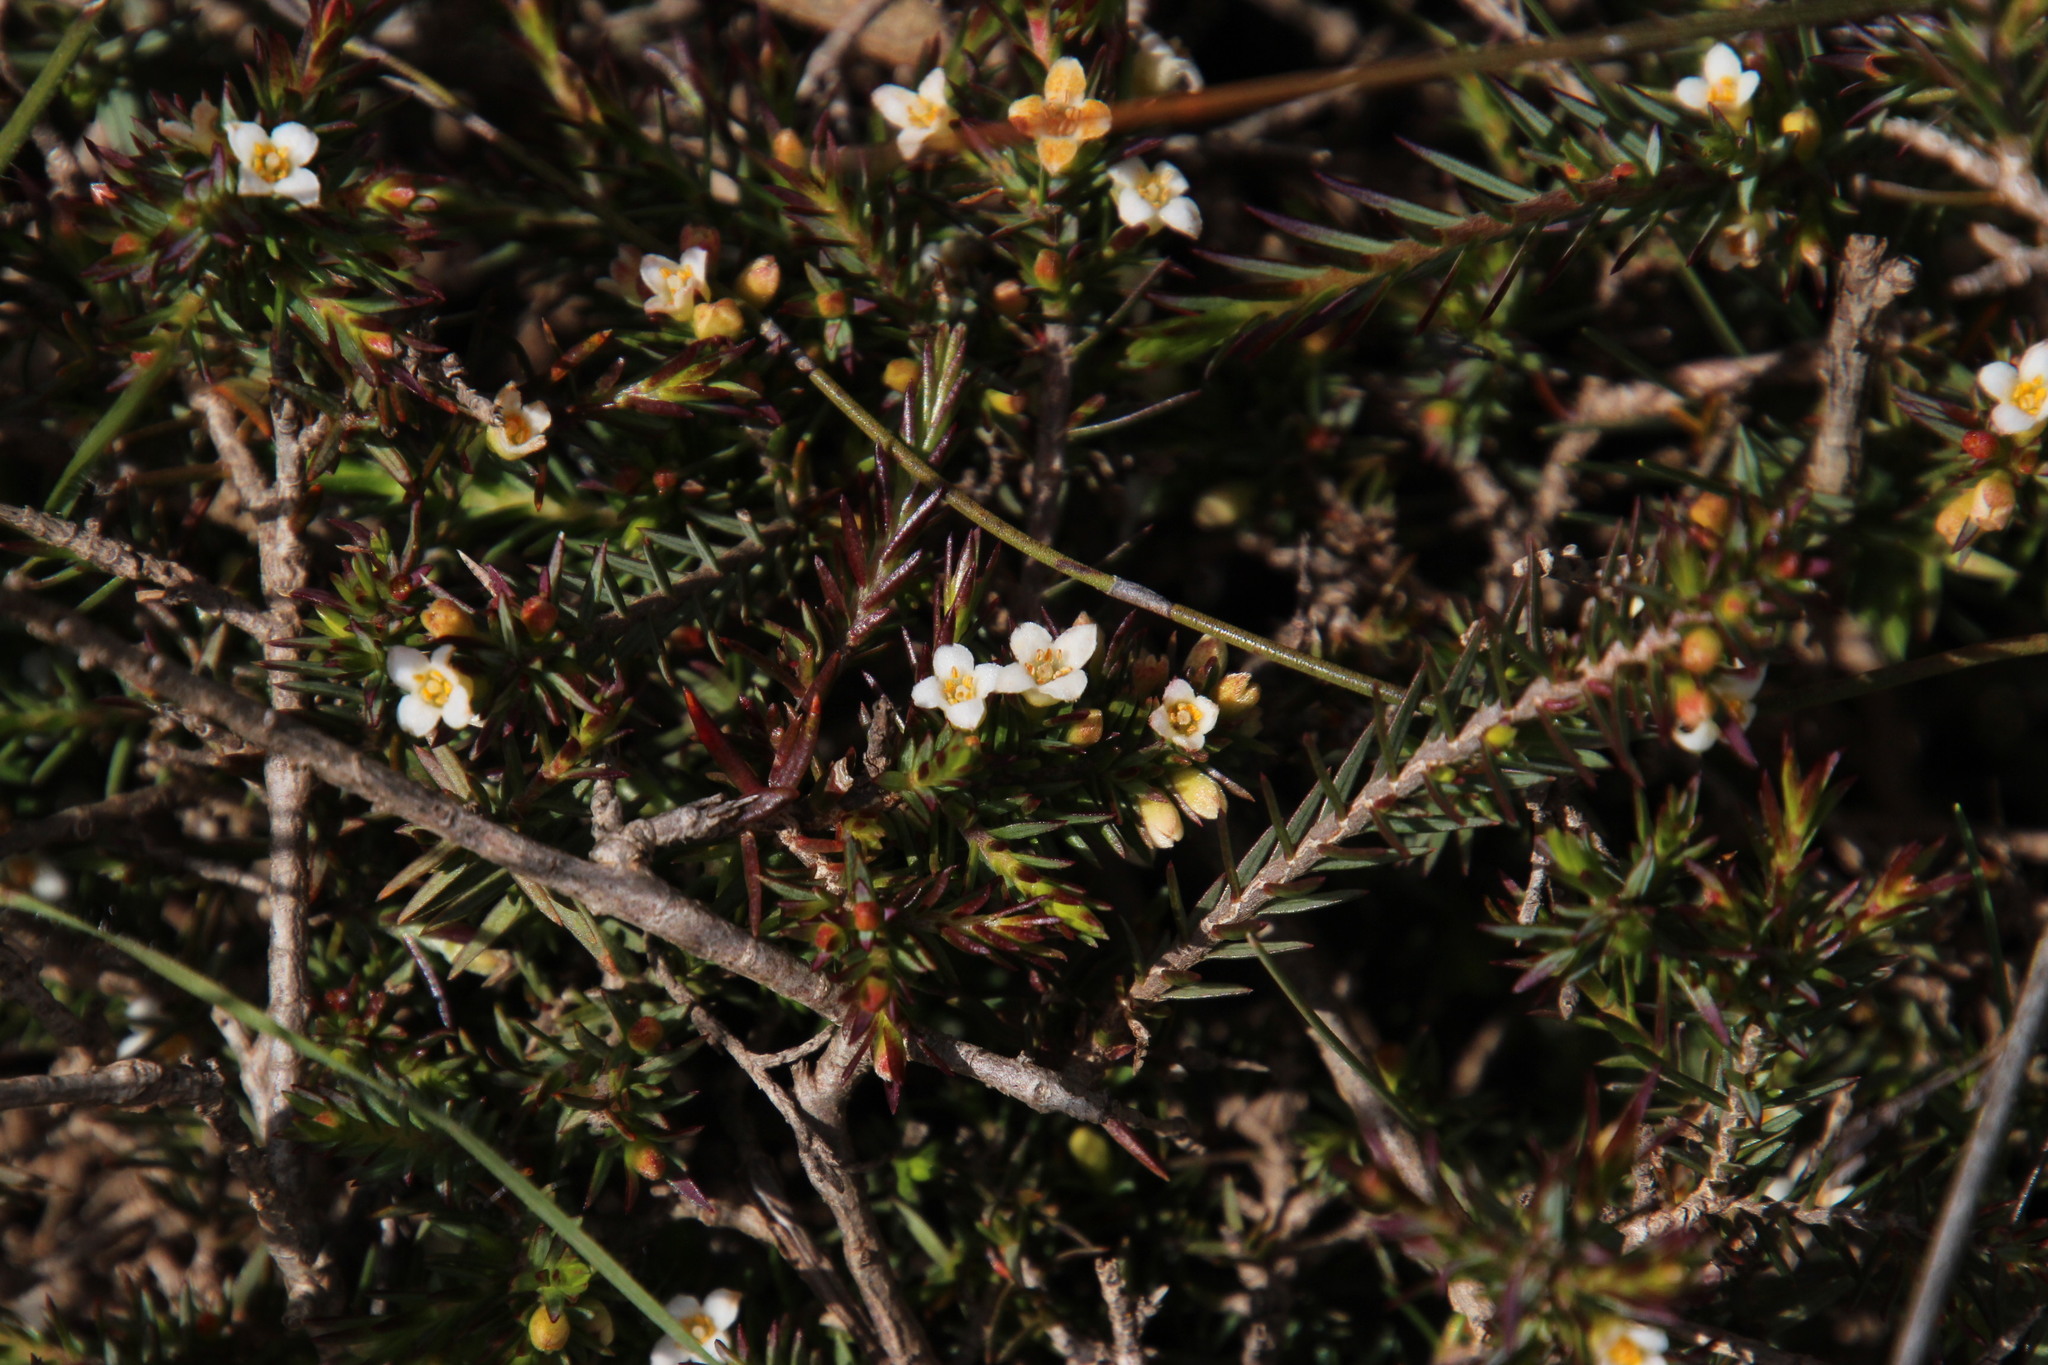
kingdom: Plantae
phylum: Tracheophyta
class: Magnoliopsida
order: Malvales
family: Thymelaeaceae
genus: Lachnaea
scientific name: Lachnaea filicaulis
